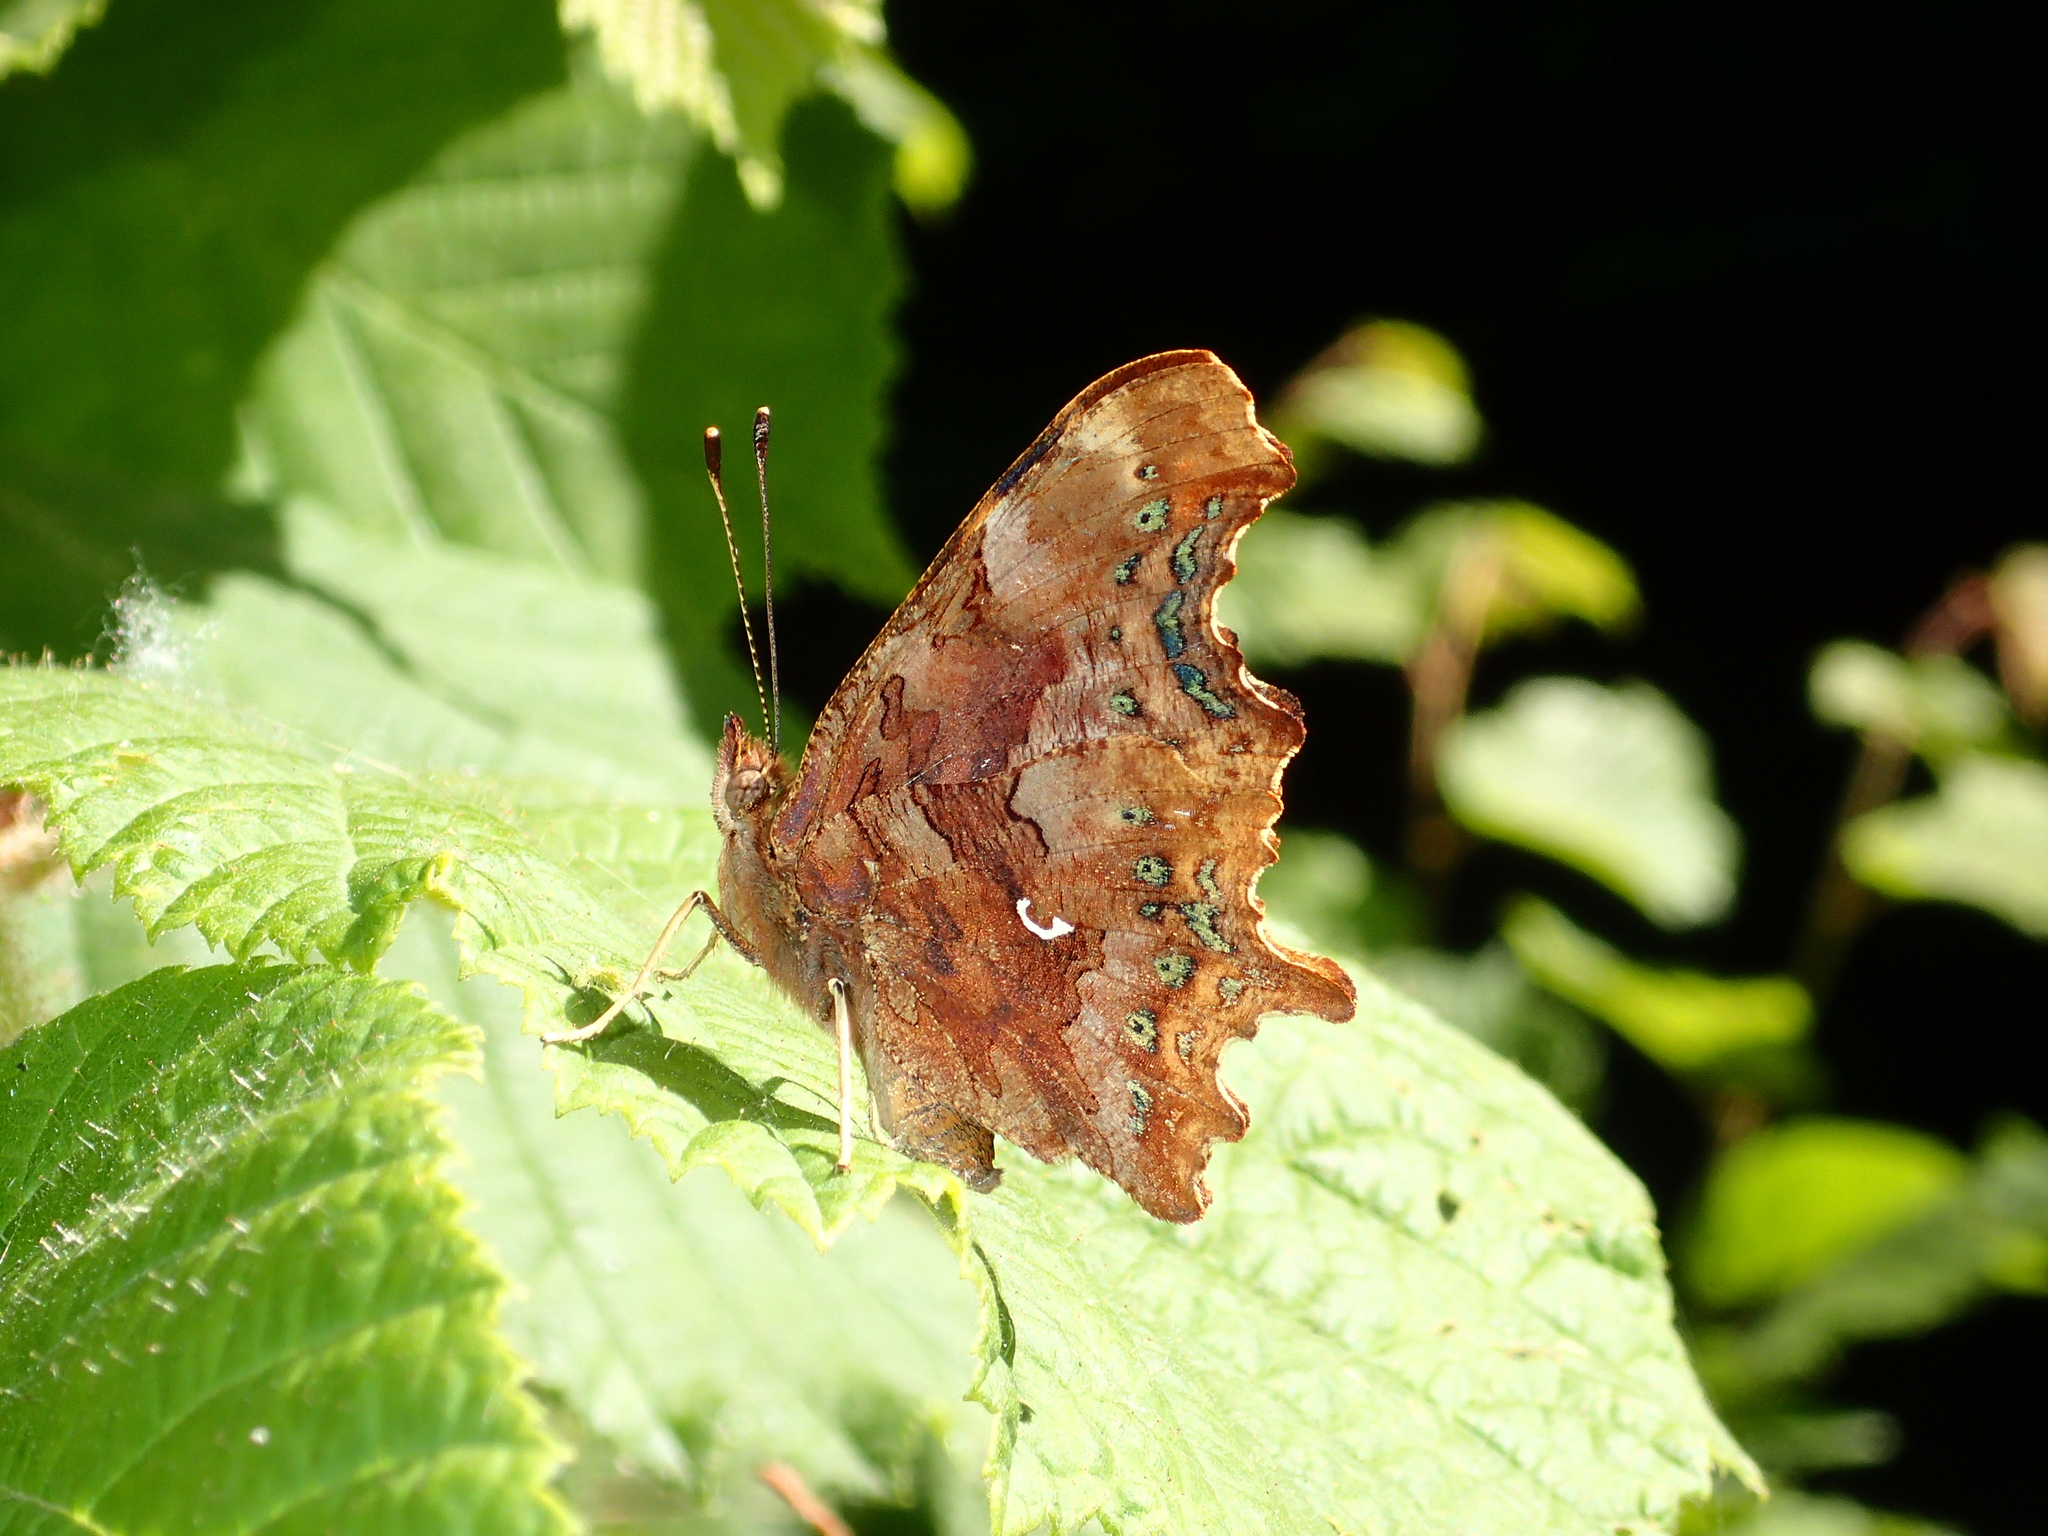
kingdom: Animalia
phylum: Arthropoda
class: Insecta
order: Lepidoptera
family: Nymphalidae
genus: Polygonia
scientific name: Polygonia c-album
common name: Comma
